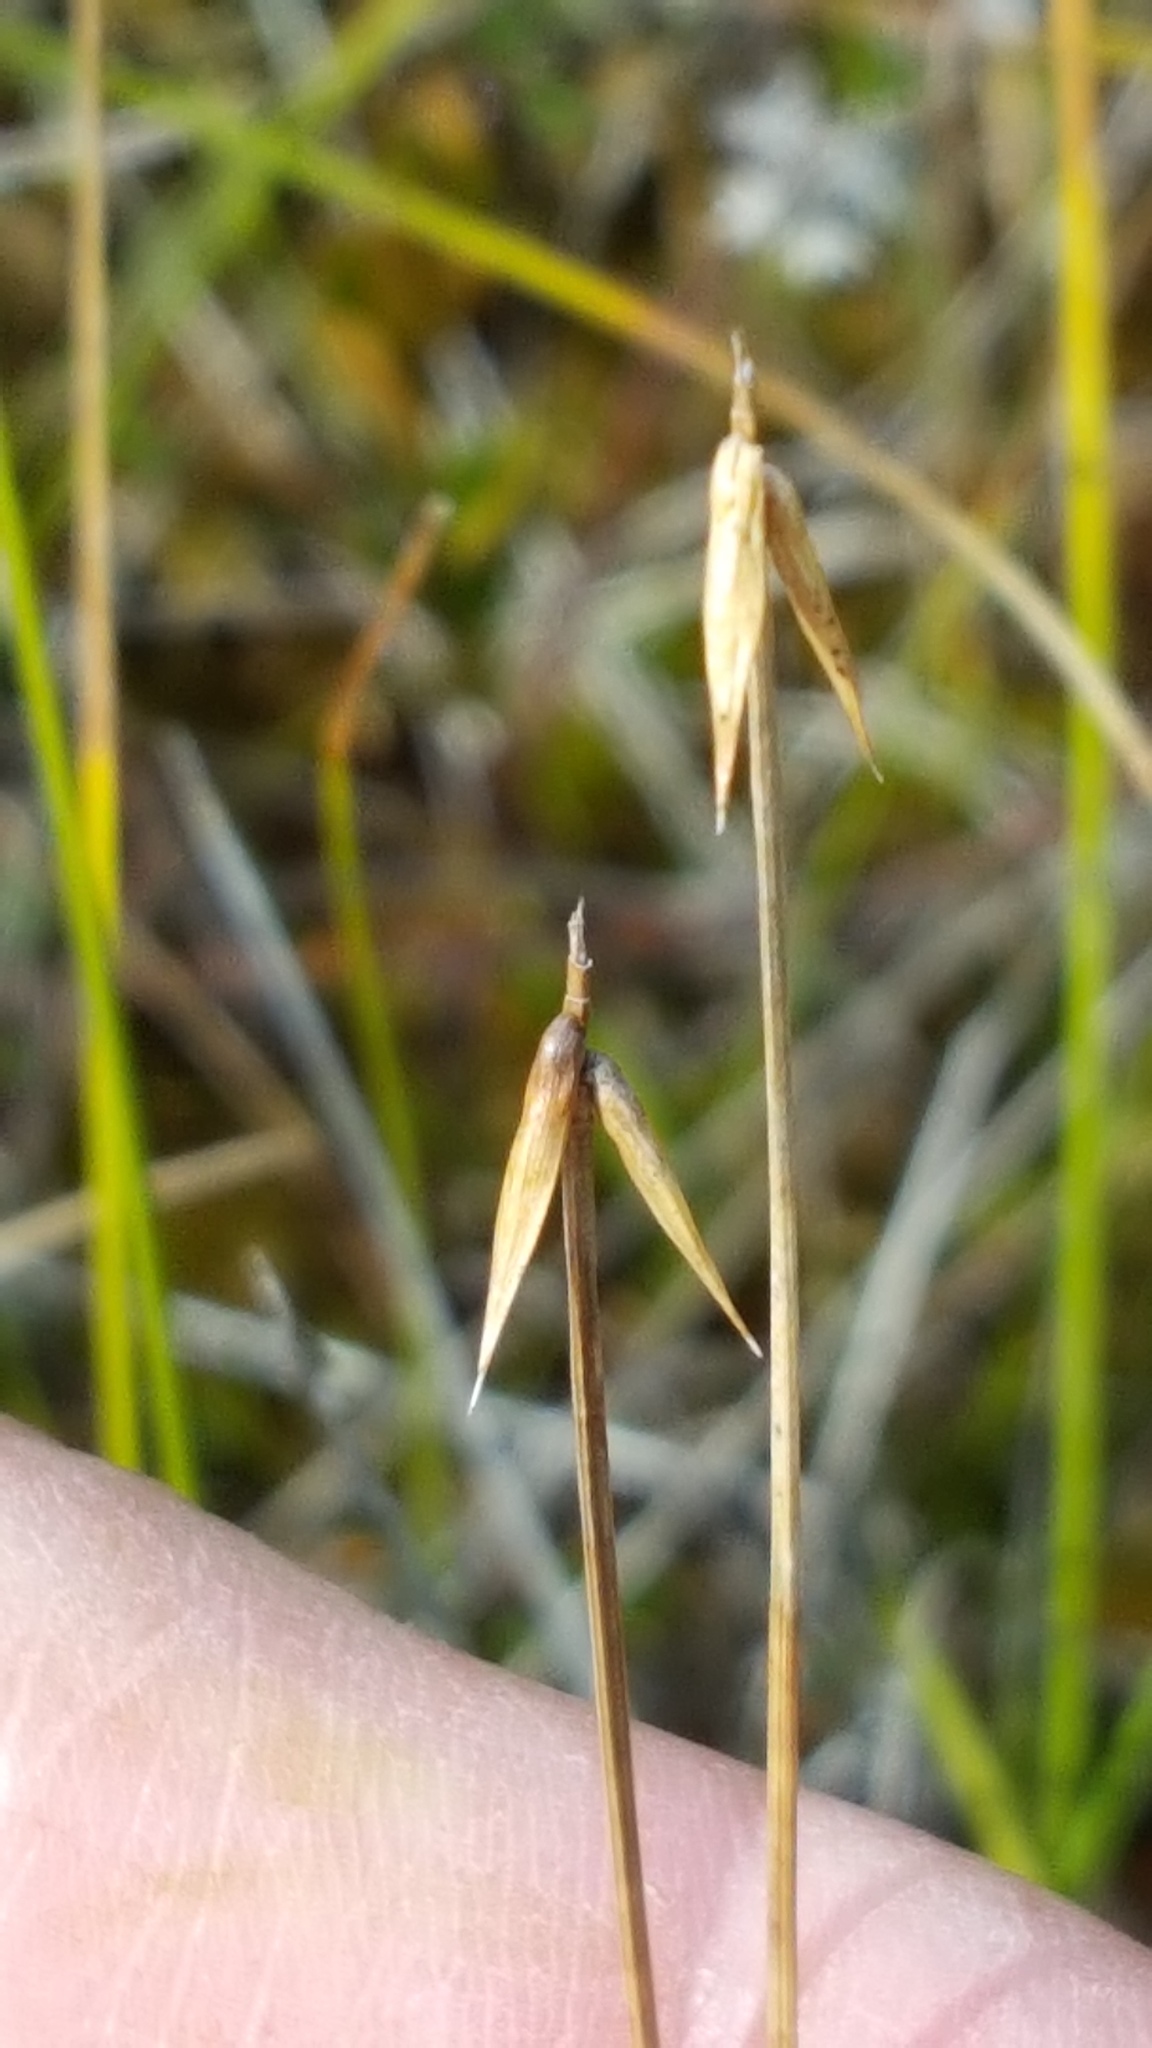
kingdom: Plantae
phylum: Tracheophyta
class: Liliopsida
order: Poales
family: Cyperaceae
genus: Carex
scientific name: Carex pauciflora
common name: Few-flowered sedge
